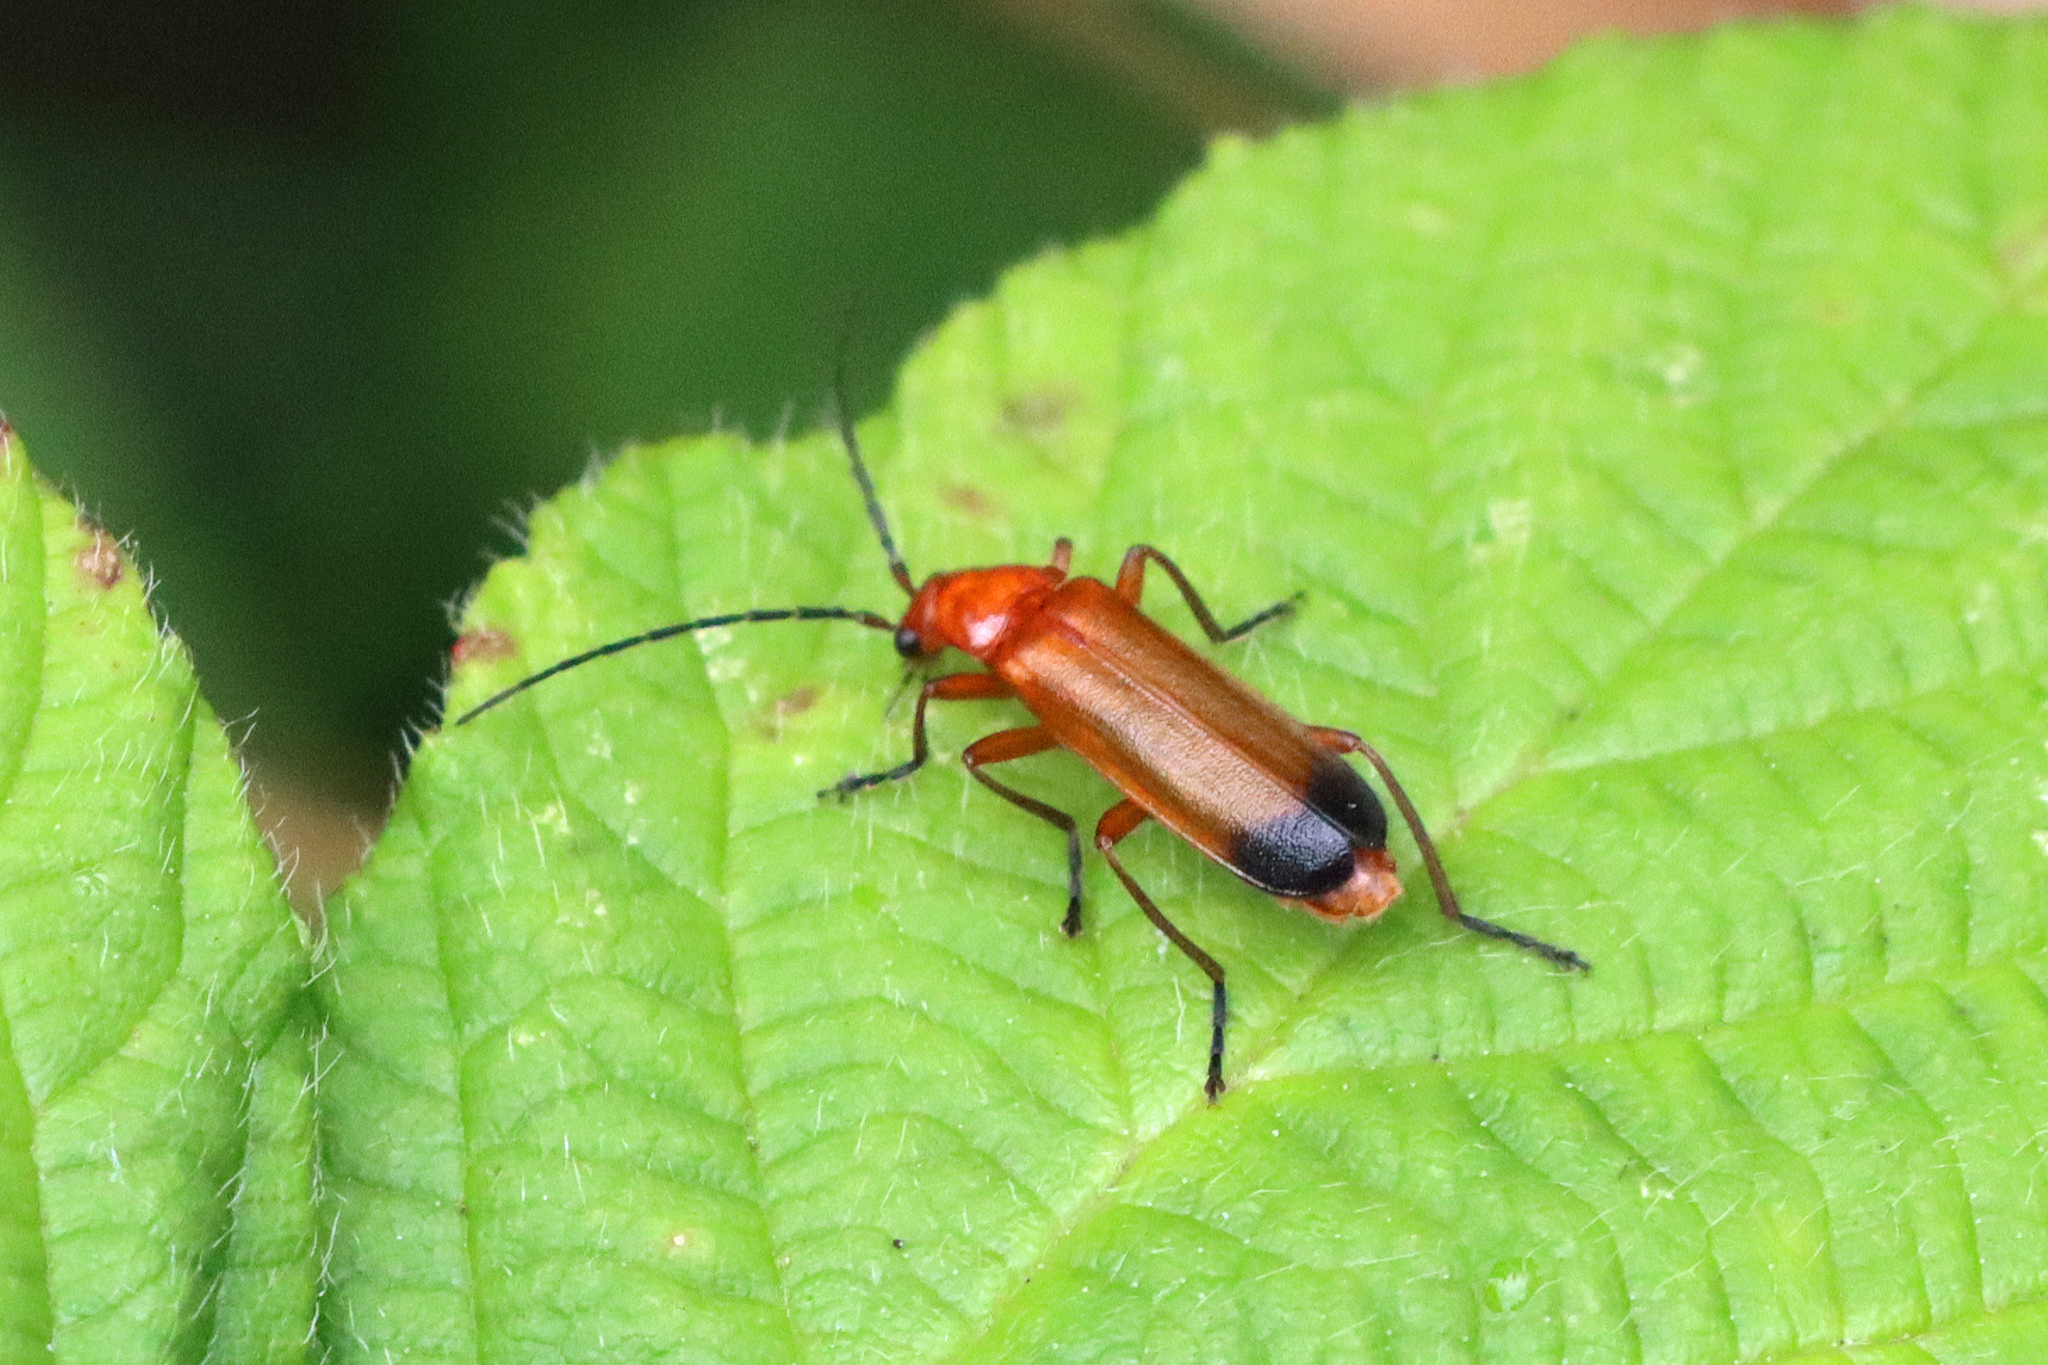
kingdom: Animalia
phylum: Arthropoda
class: Insecta
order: Coleoptera
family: Cantharidae
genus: Rhagonycha
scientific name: Rhagonycha fulva
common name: Common red soldier beetle
